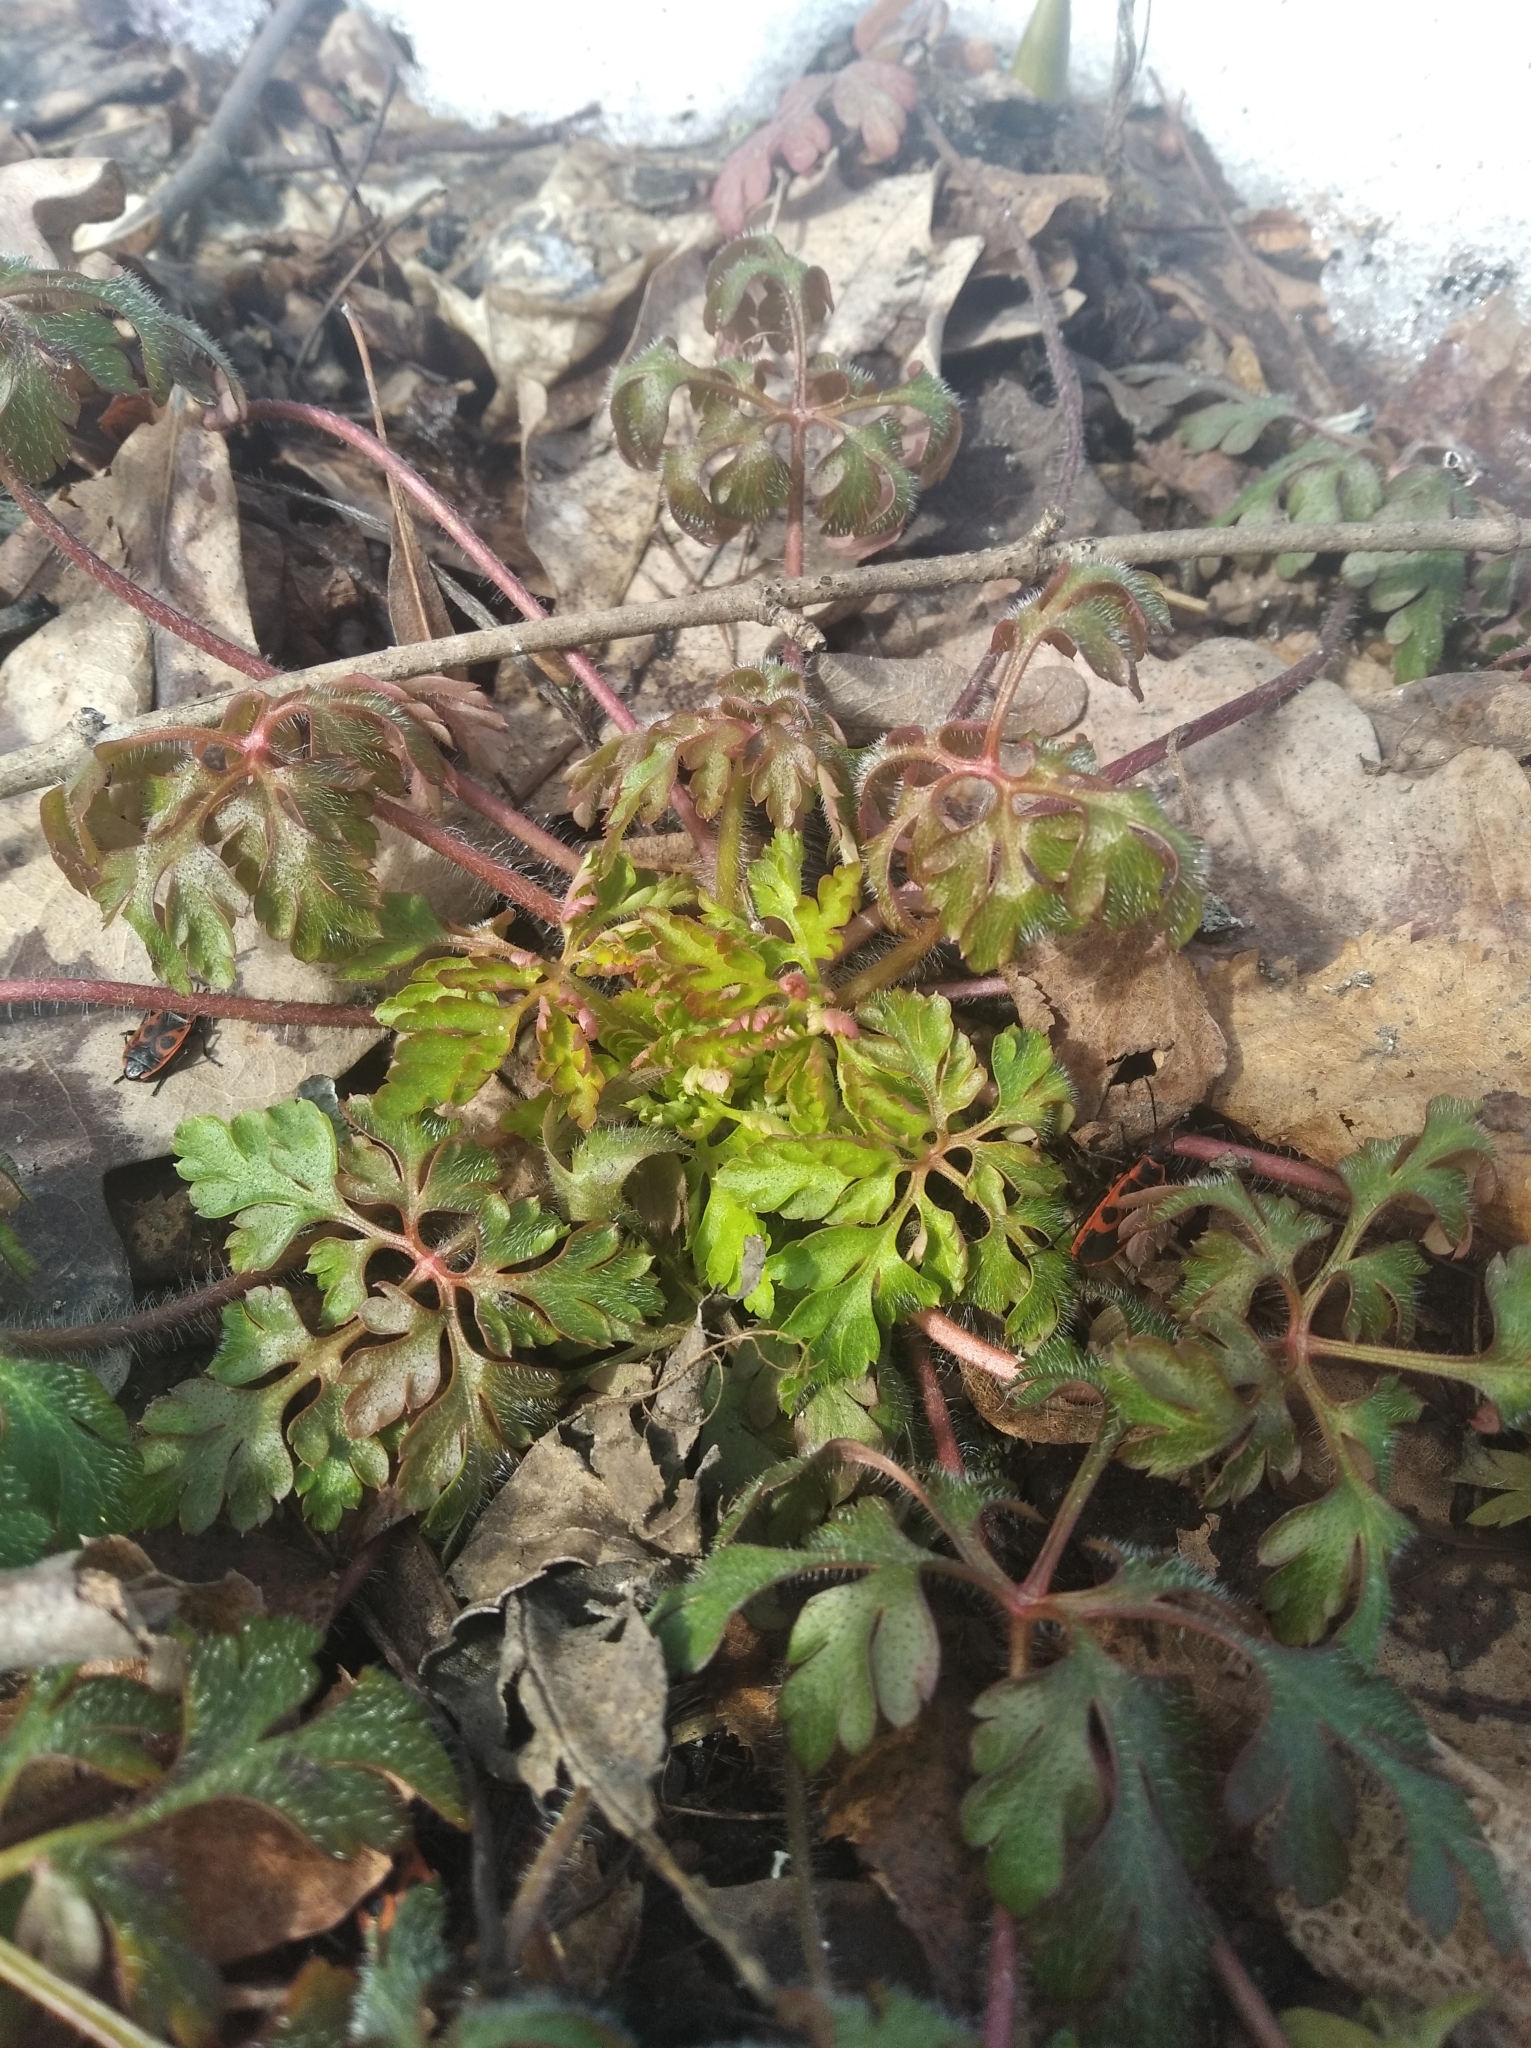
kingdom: Plantae
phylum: Tracheophyta
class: Magnoliopsida
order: Geraniales
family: Geraniaceae
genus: Geranium
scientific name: Geranium robertianum
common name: Herb-robert
